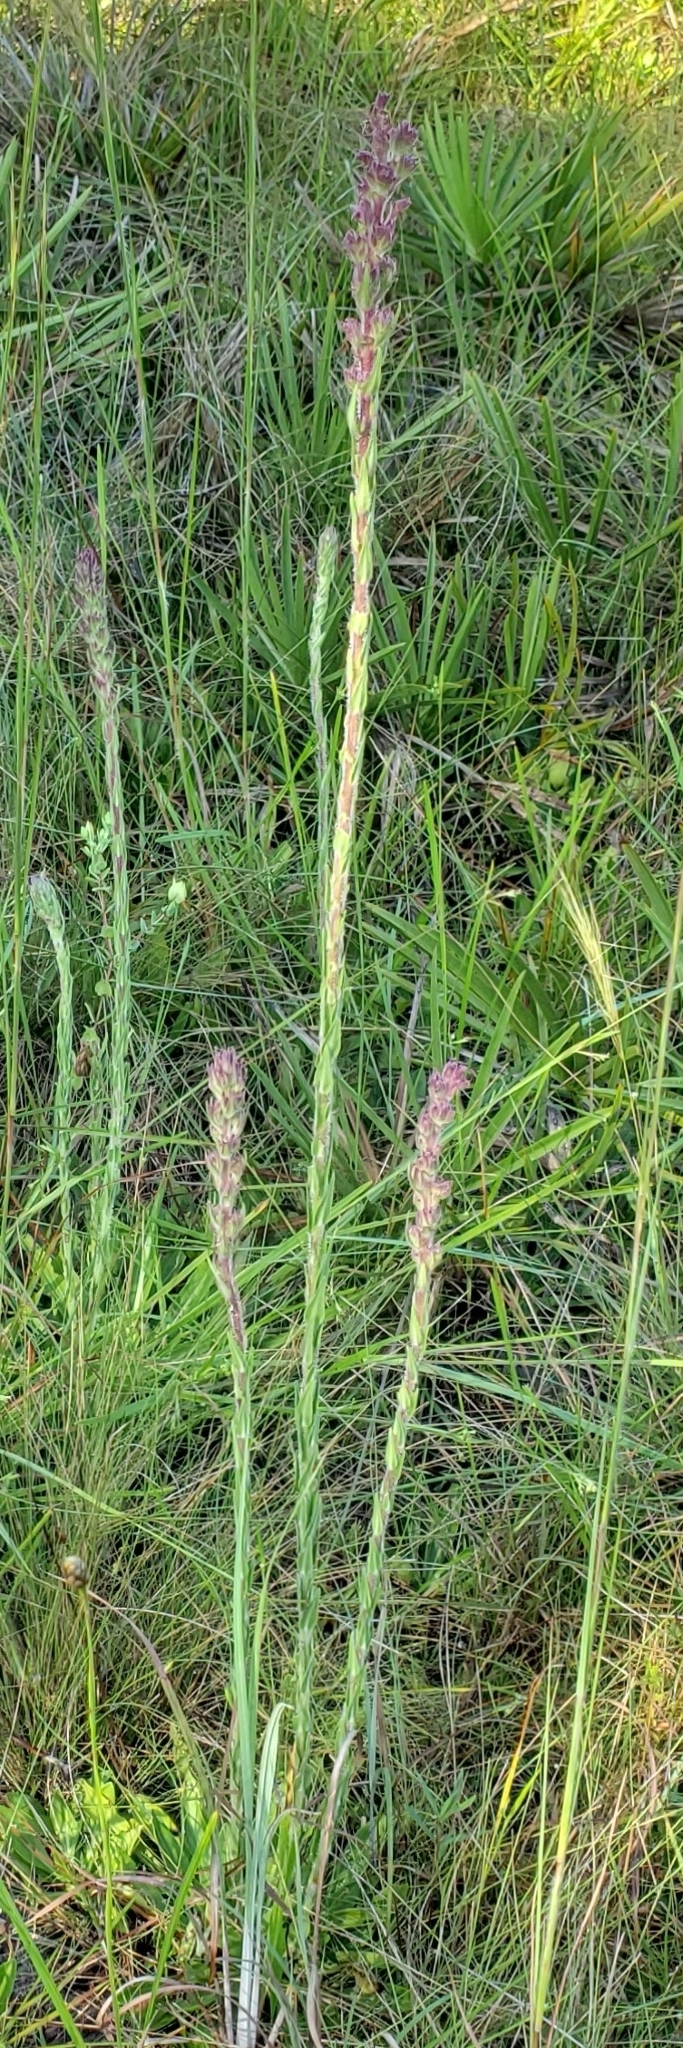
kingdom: Plantae
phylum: Tracheophyta
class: Magnoliopsida
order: Asterales
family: Asteraceae
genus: Carphephorus
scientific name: Carphephorus paniculatus
